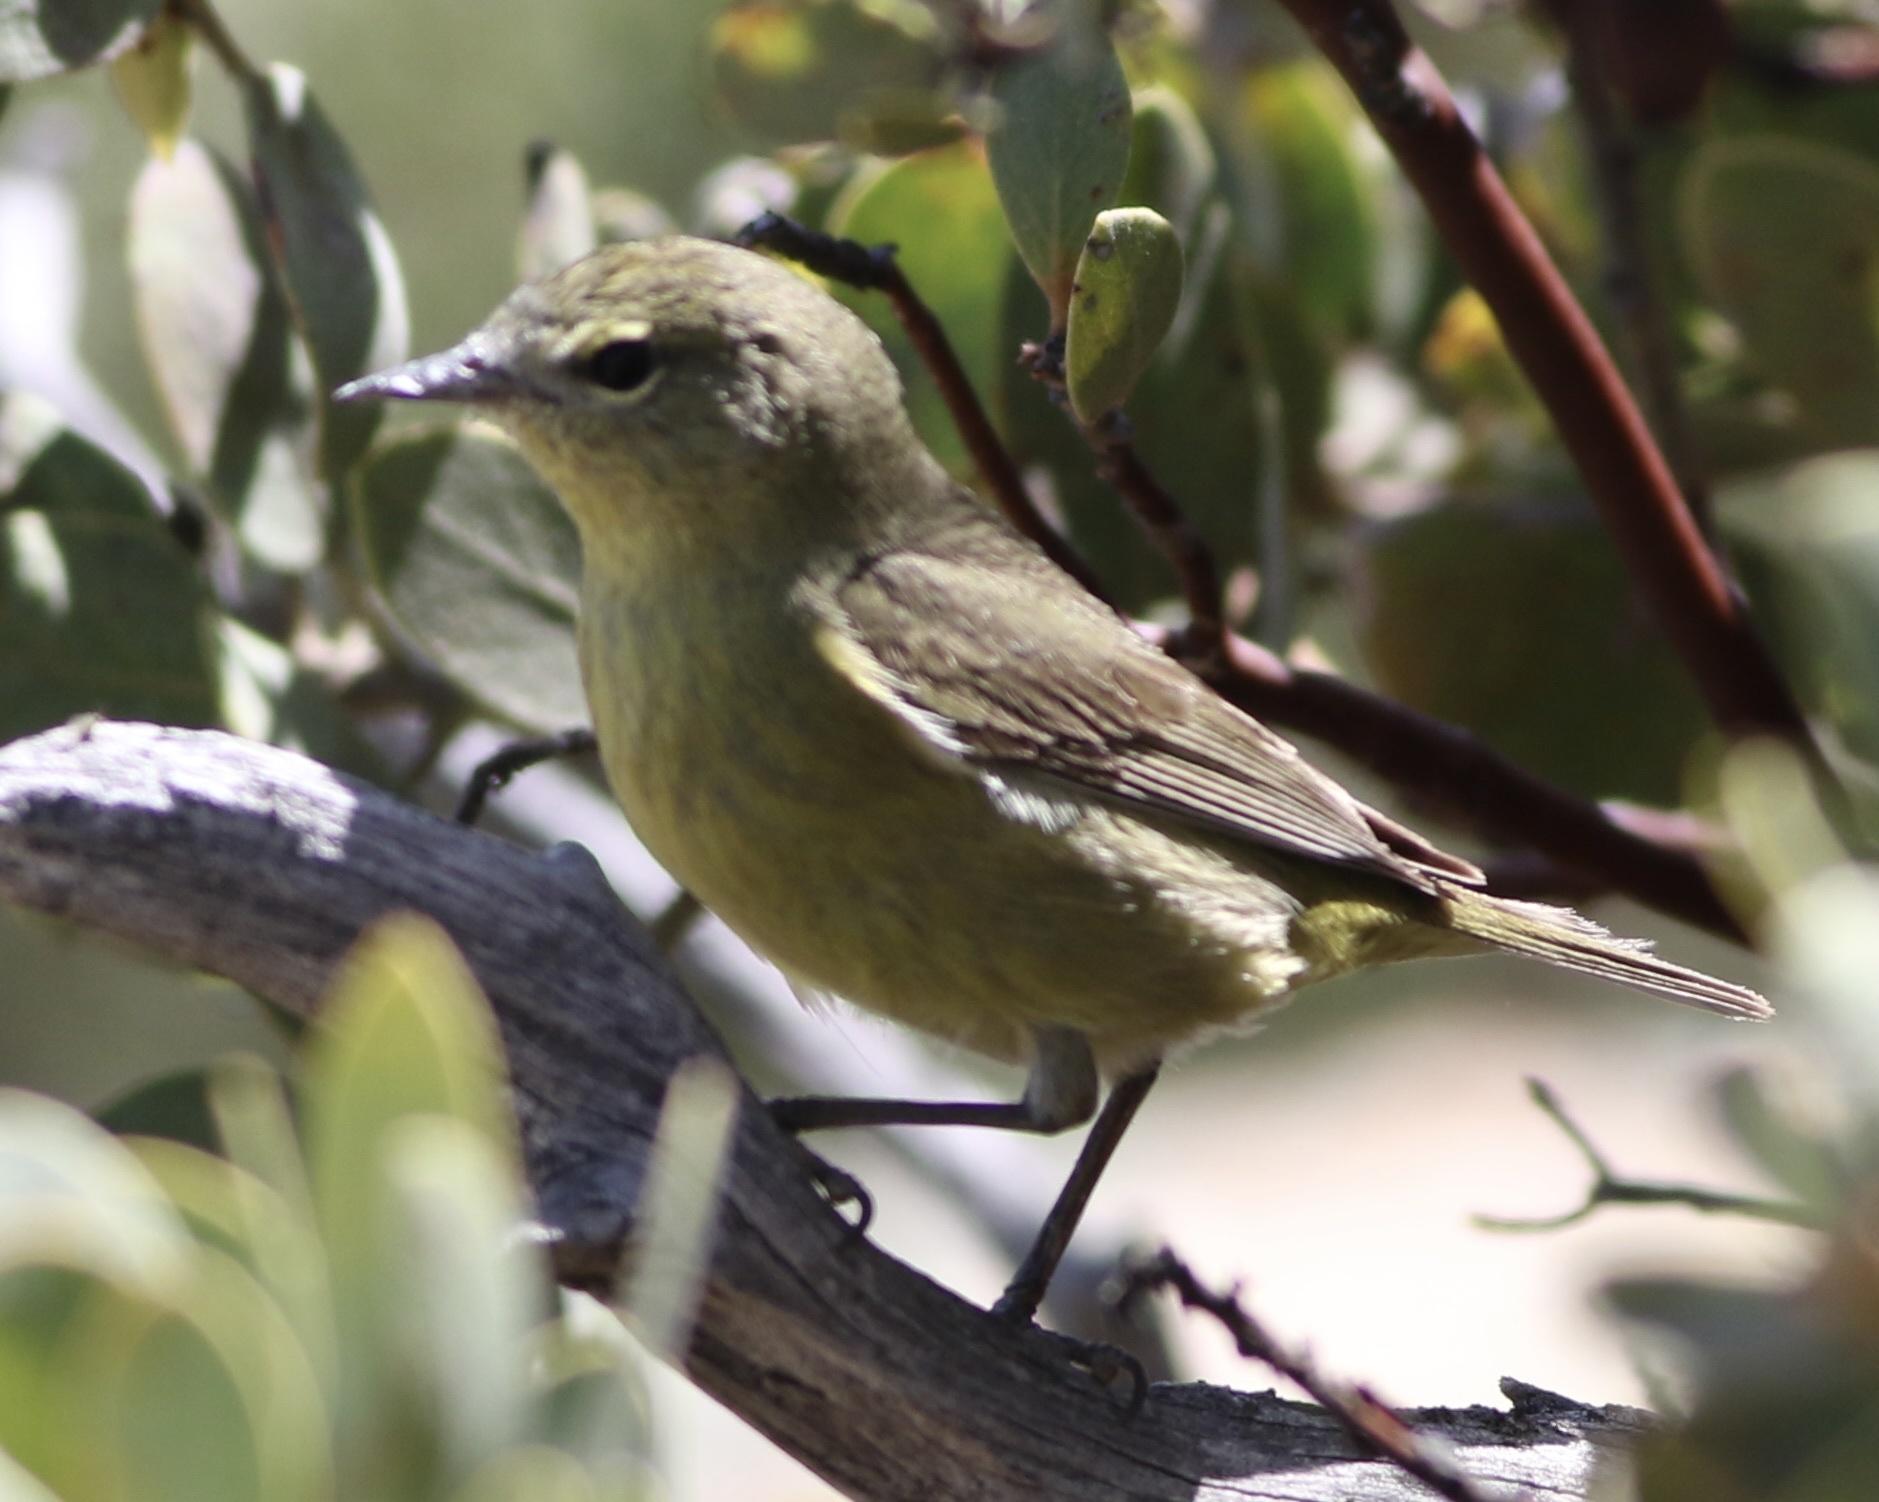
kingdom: Animalia
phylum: Chordata
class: Aves
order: Passeriformes
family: Parulidae
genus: Leiothlypis
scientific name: Leiothlypis celata
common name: Orange-crowned warbler
